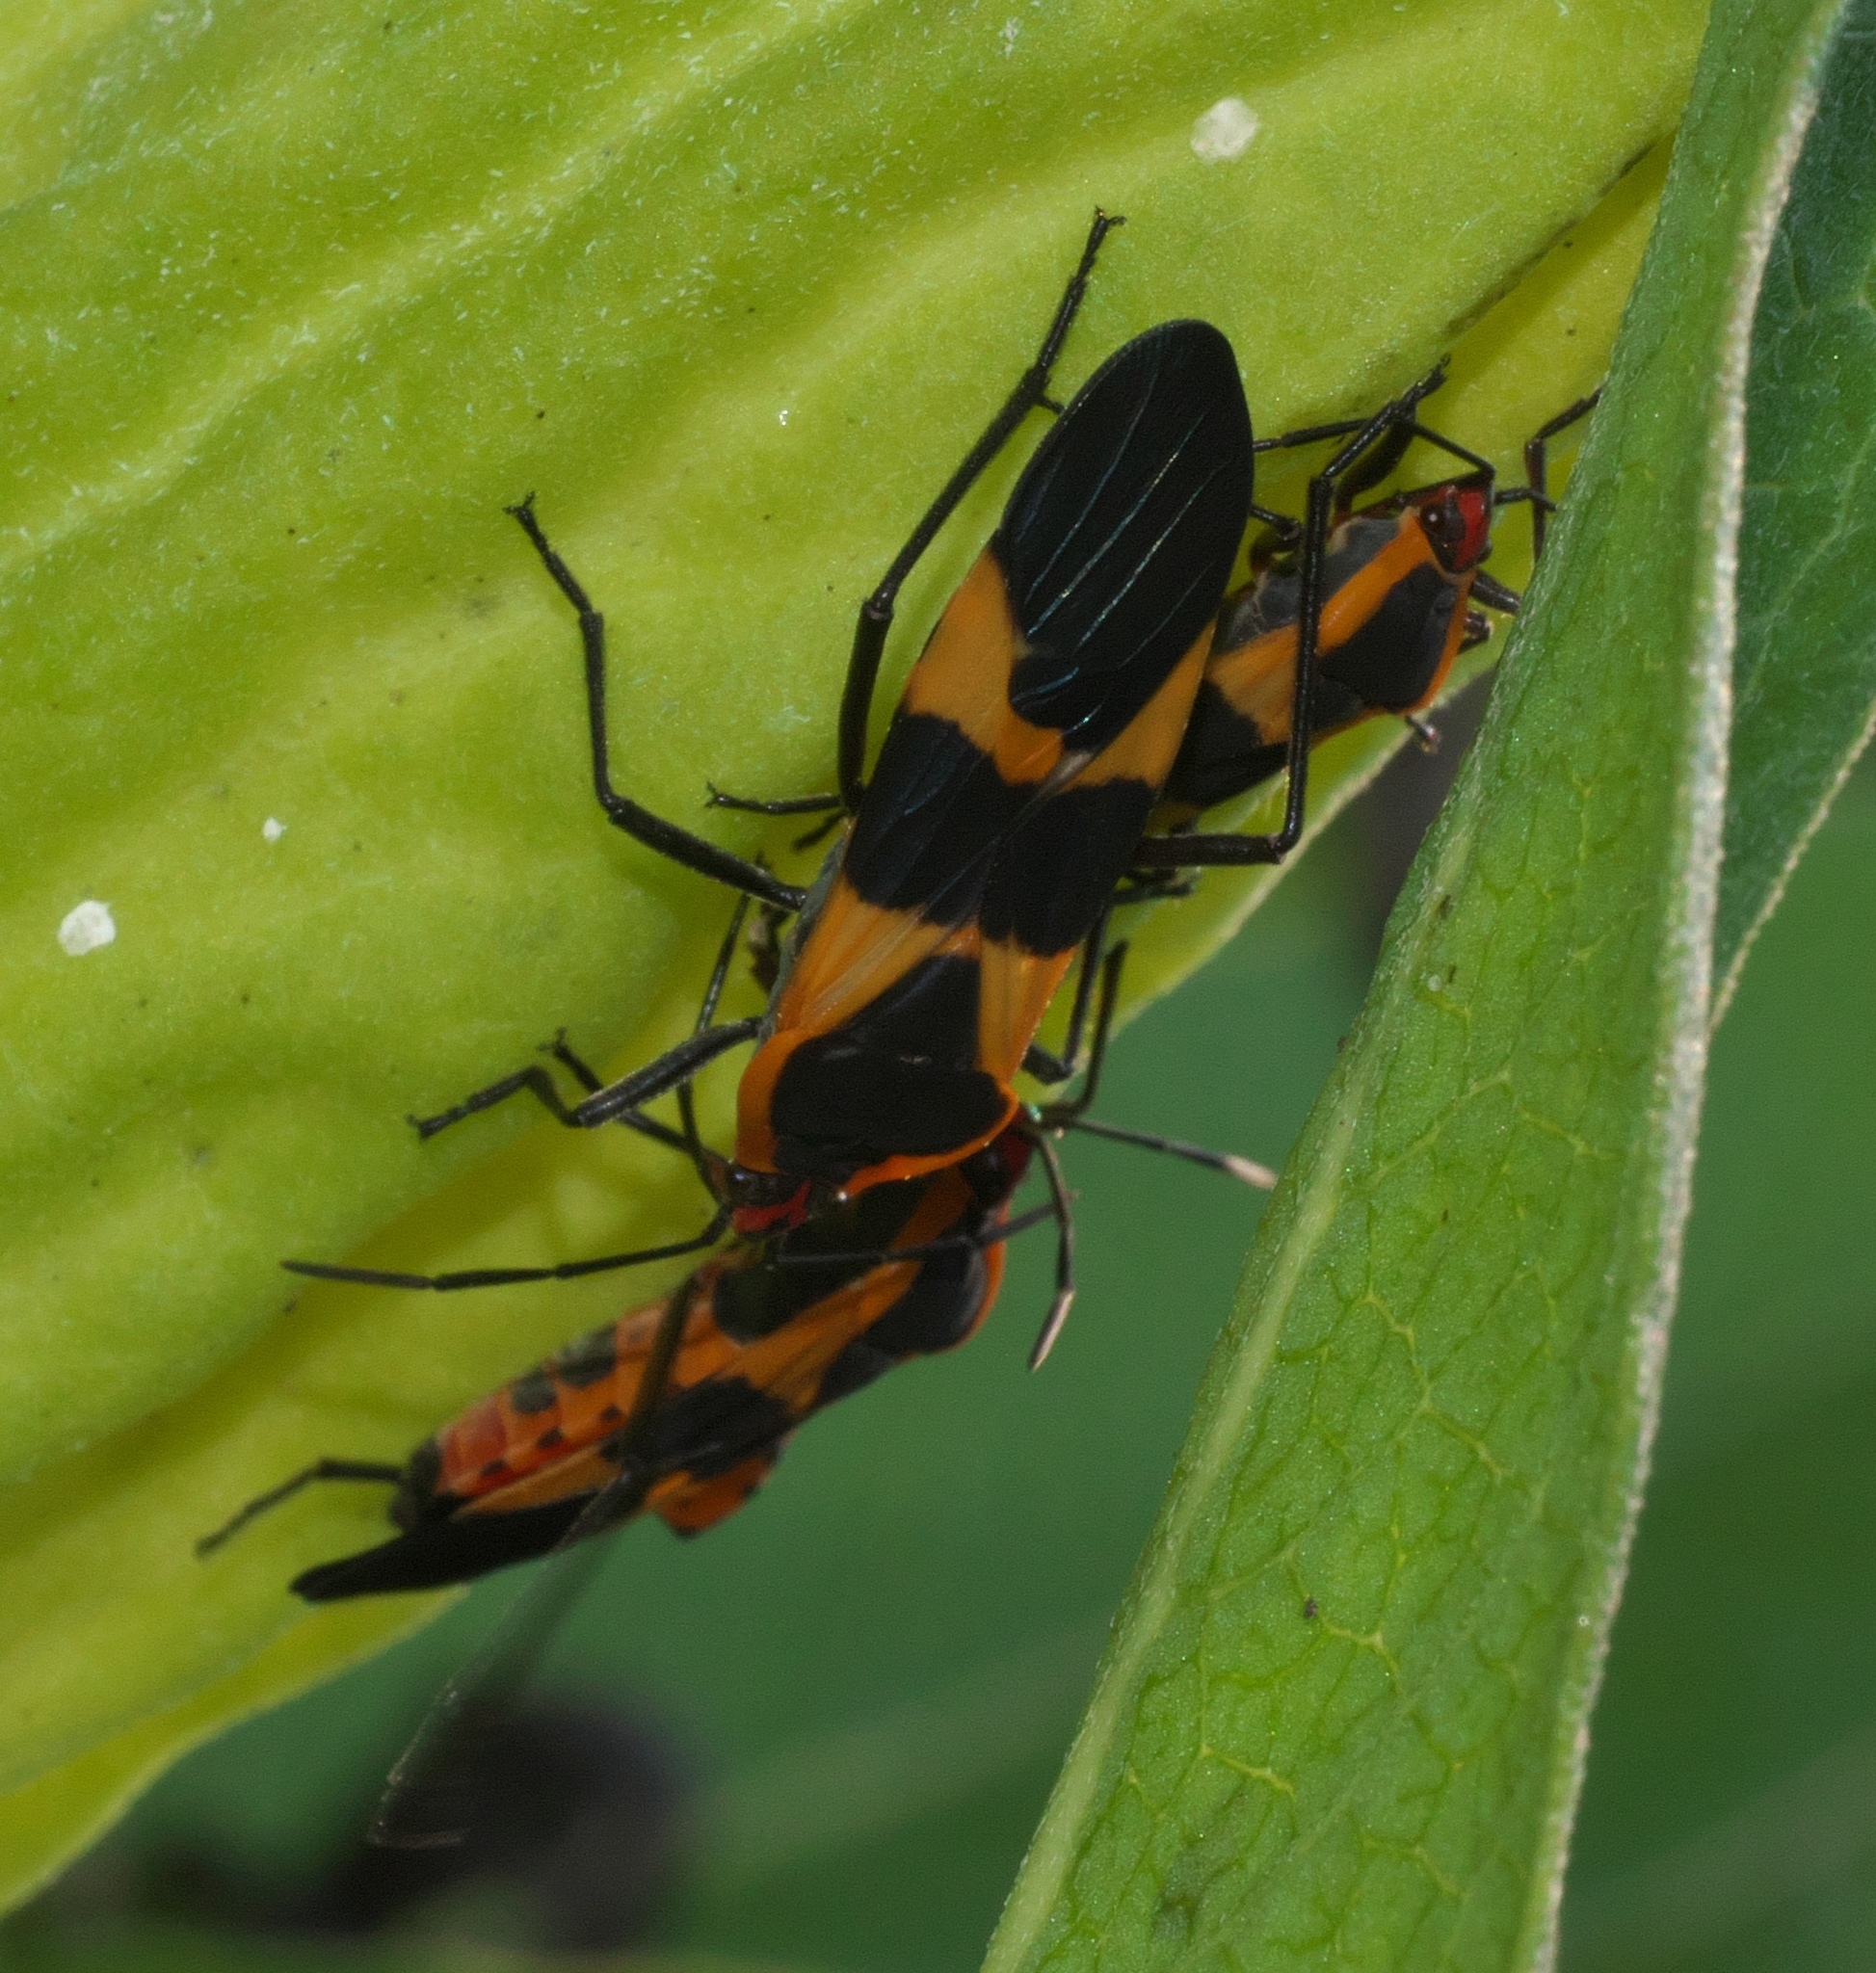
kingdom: Animalia
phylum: Arthropoda
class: Insecta
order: Hemiptera
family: Lygaeidae
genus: Oncopeltus
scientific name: Oncopeltus fasciatus
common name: Large milkweed bug
